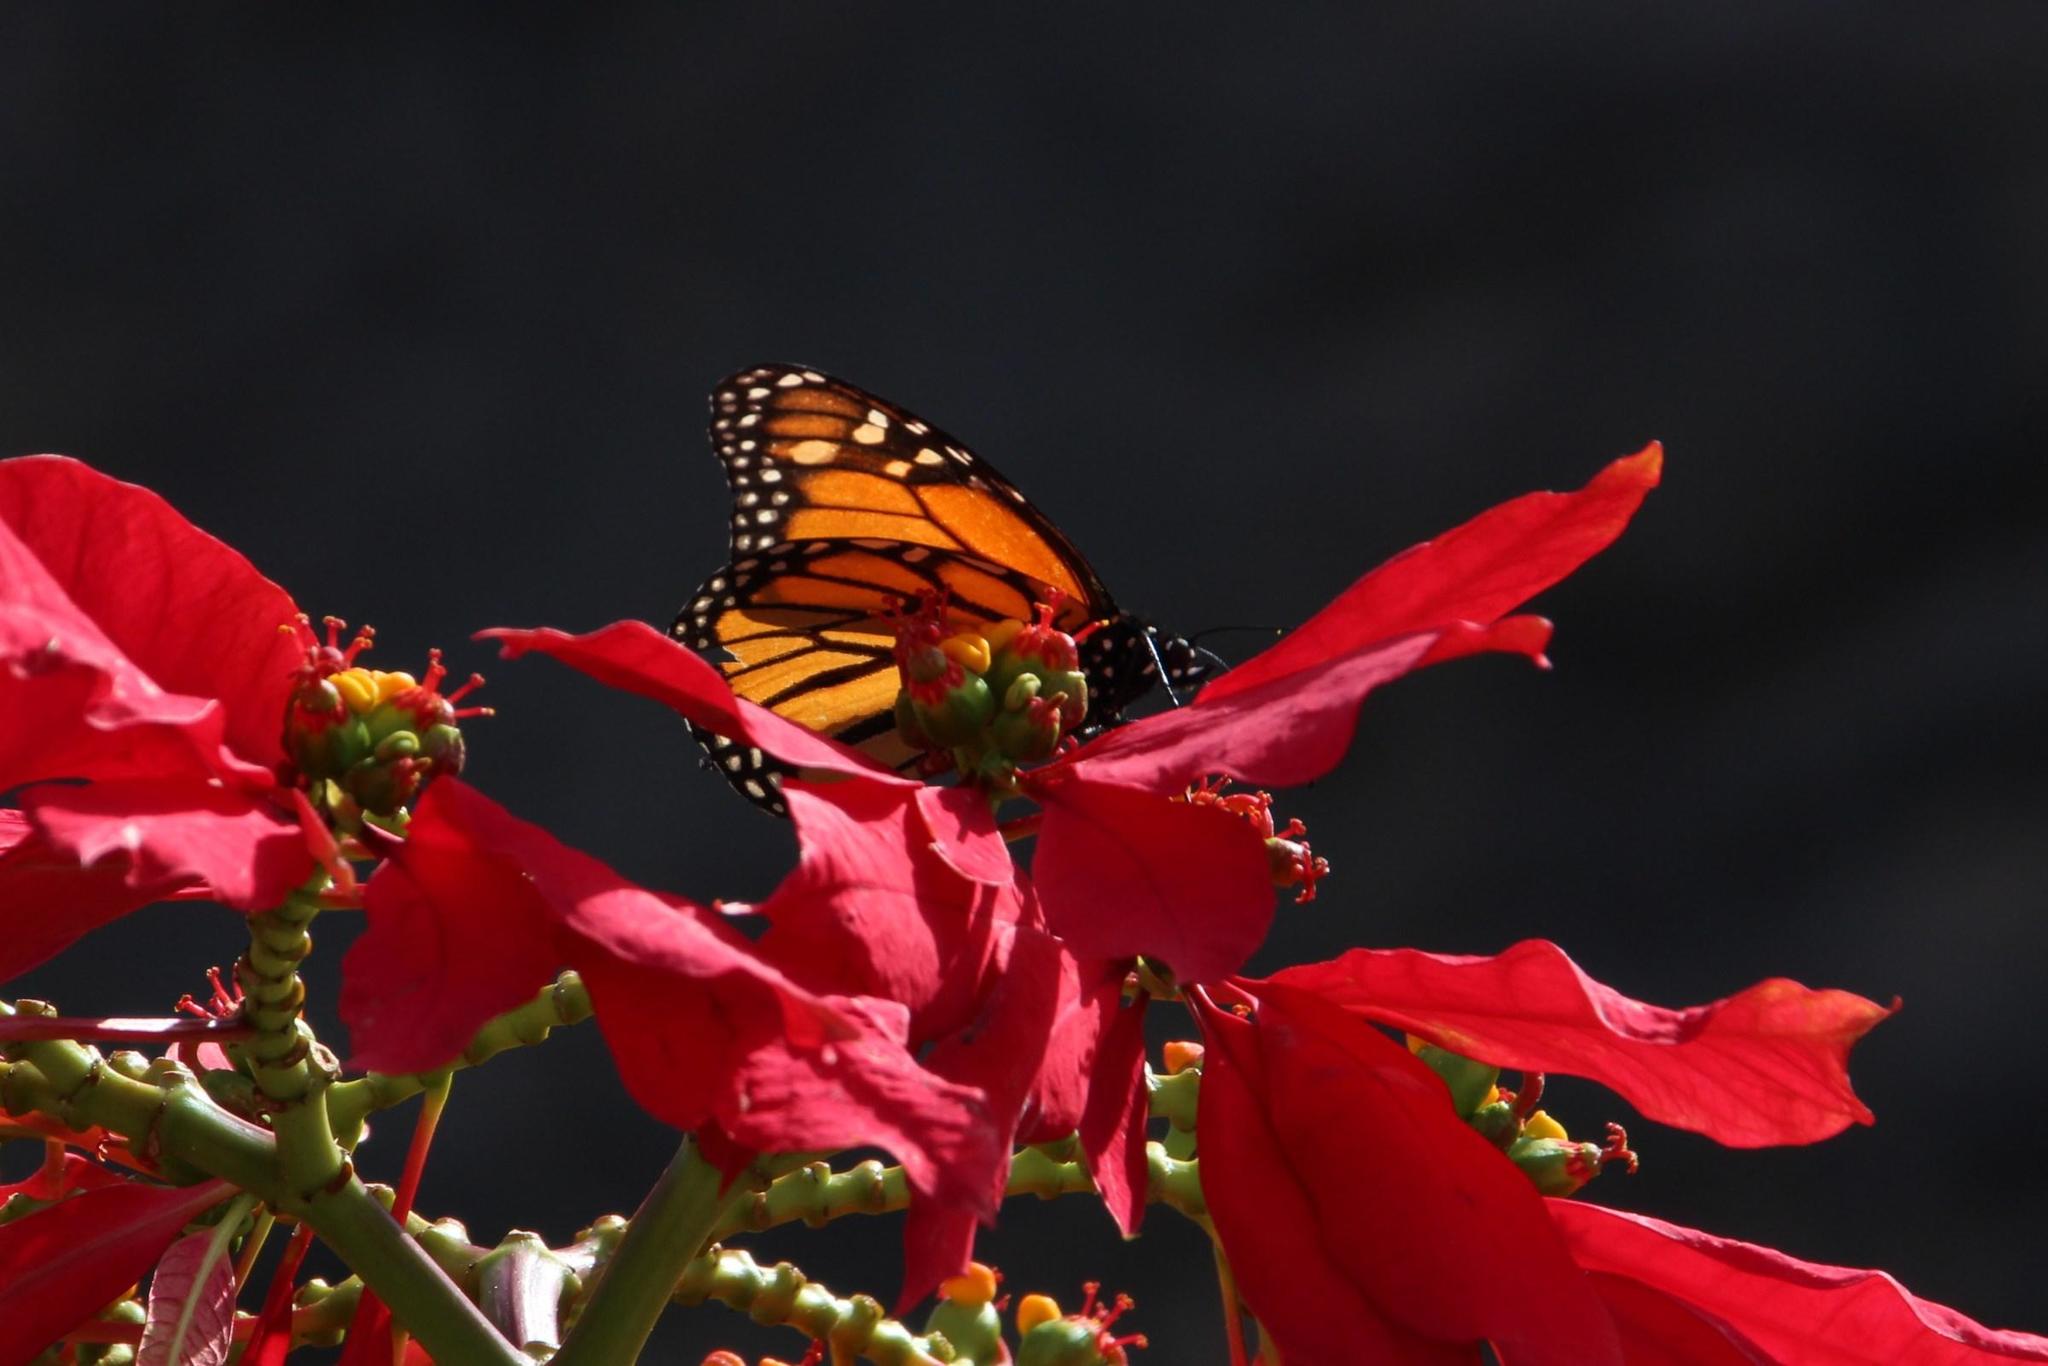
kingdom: Plantae
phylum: Tracheophyta
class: Magnoliopsida
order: Malpighiales
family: Euphorbiaceae
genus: Euphorbia
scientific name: Euphorbia pulcherrima
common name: Christmas-flower
